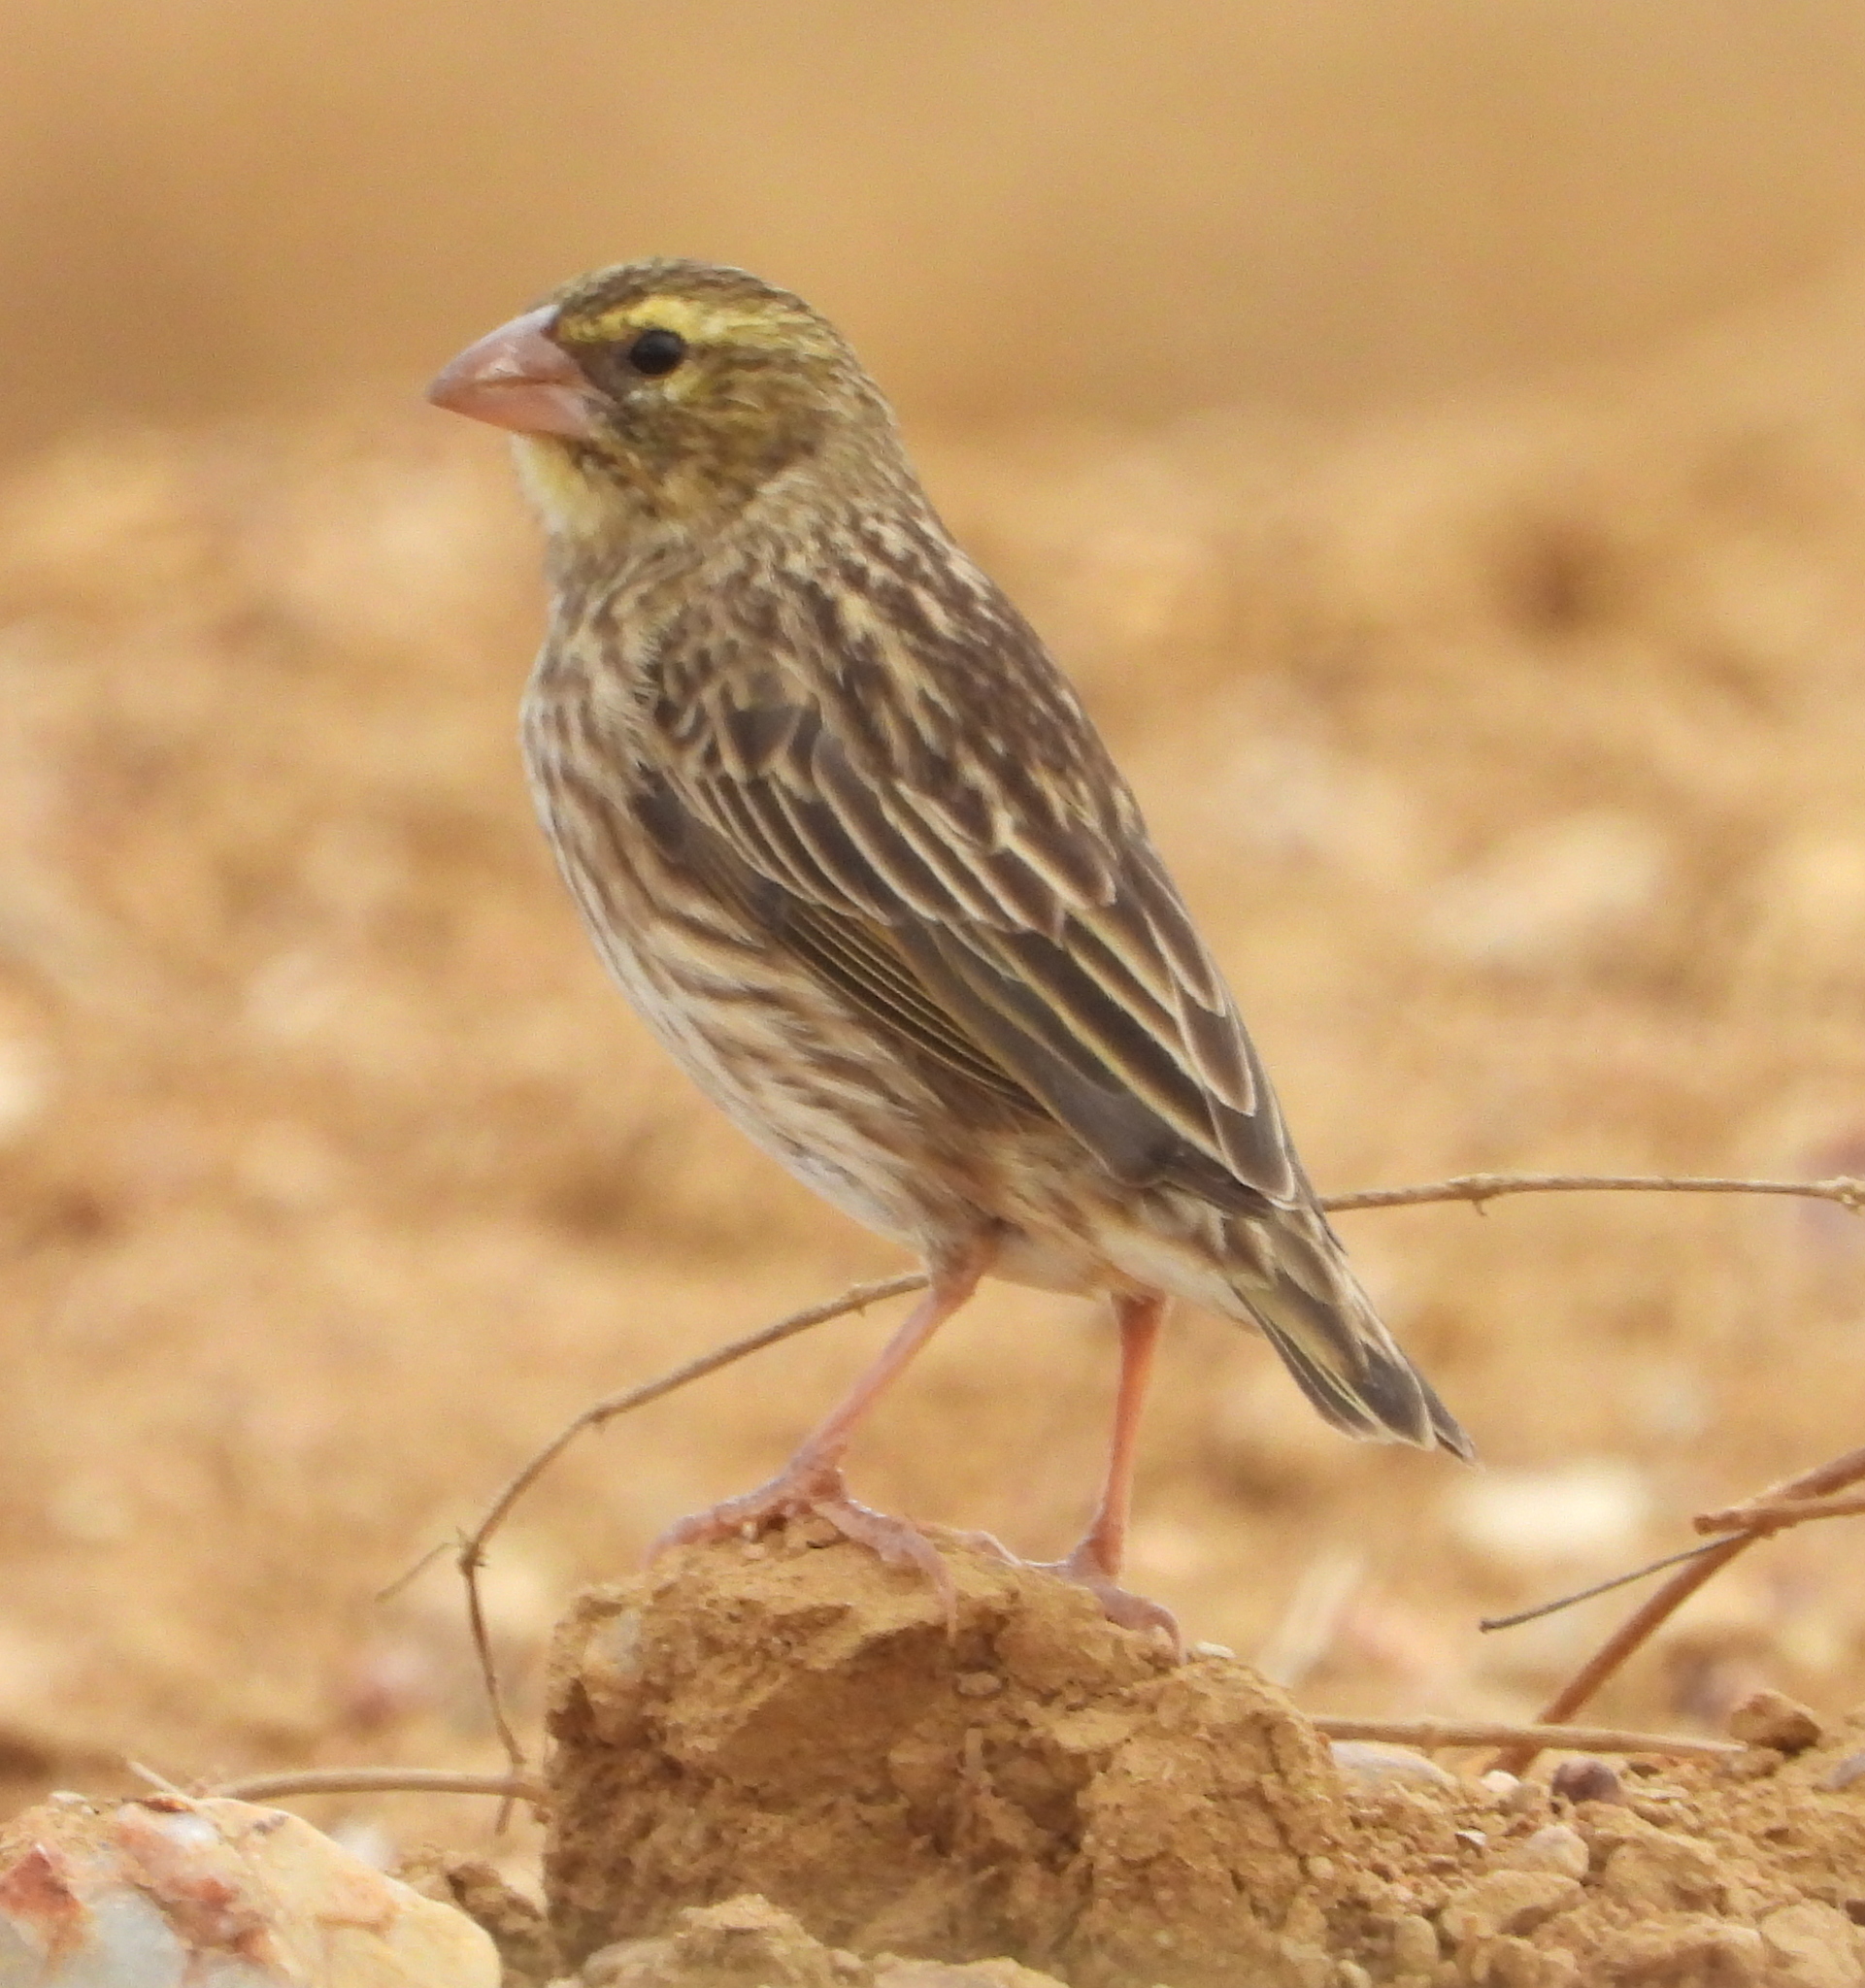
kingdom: Animalia
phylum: Chordata
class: Aves
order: Passeriformes
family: Ploceidae
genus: Euplectes
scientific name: Euplectes orix
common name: Southern red bishop
